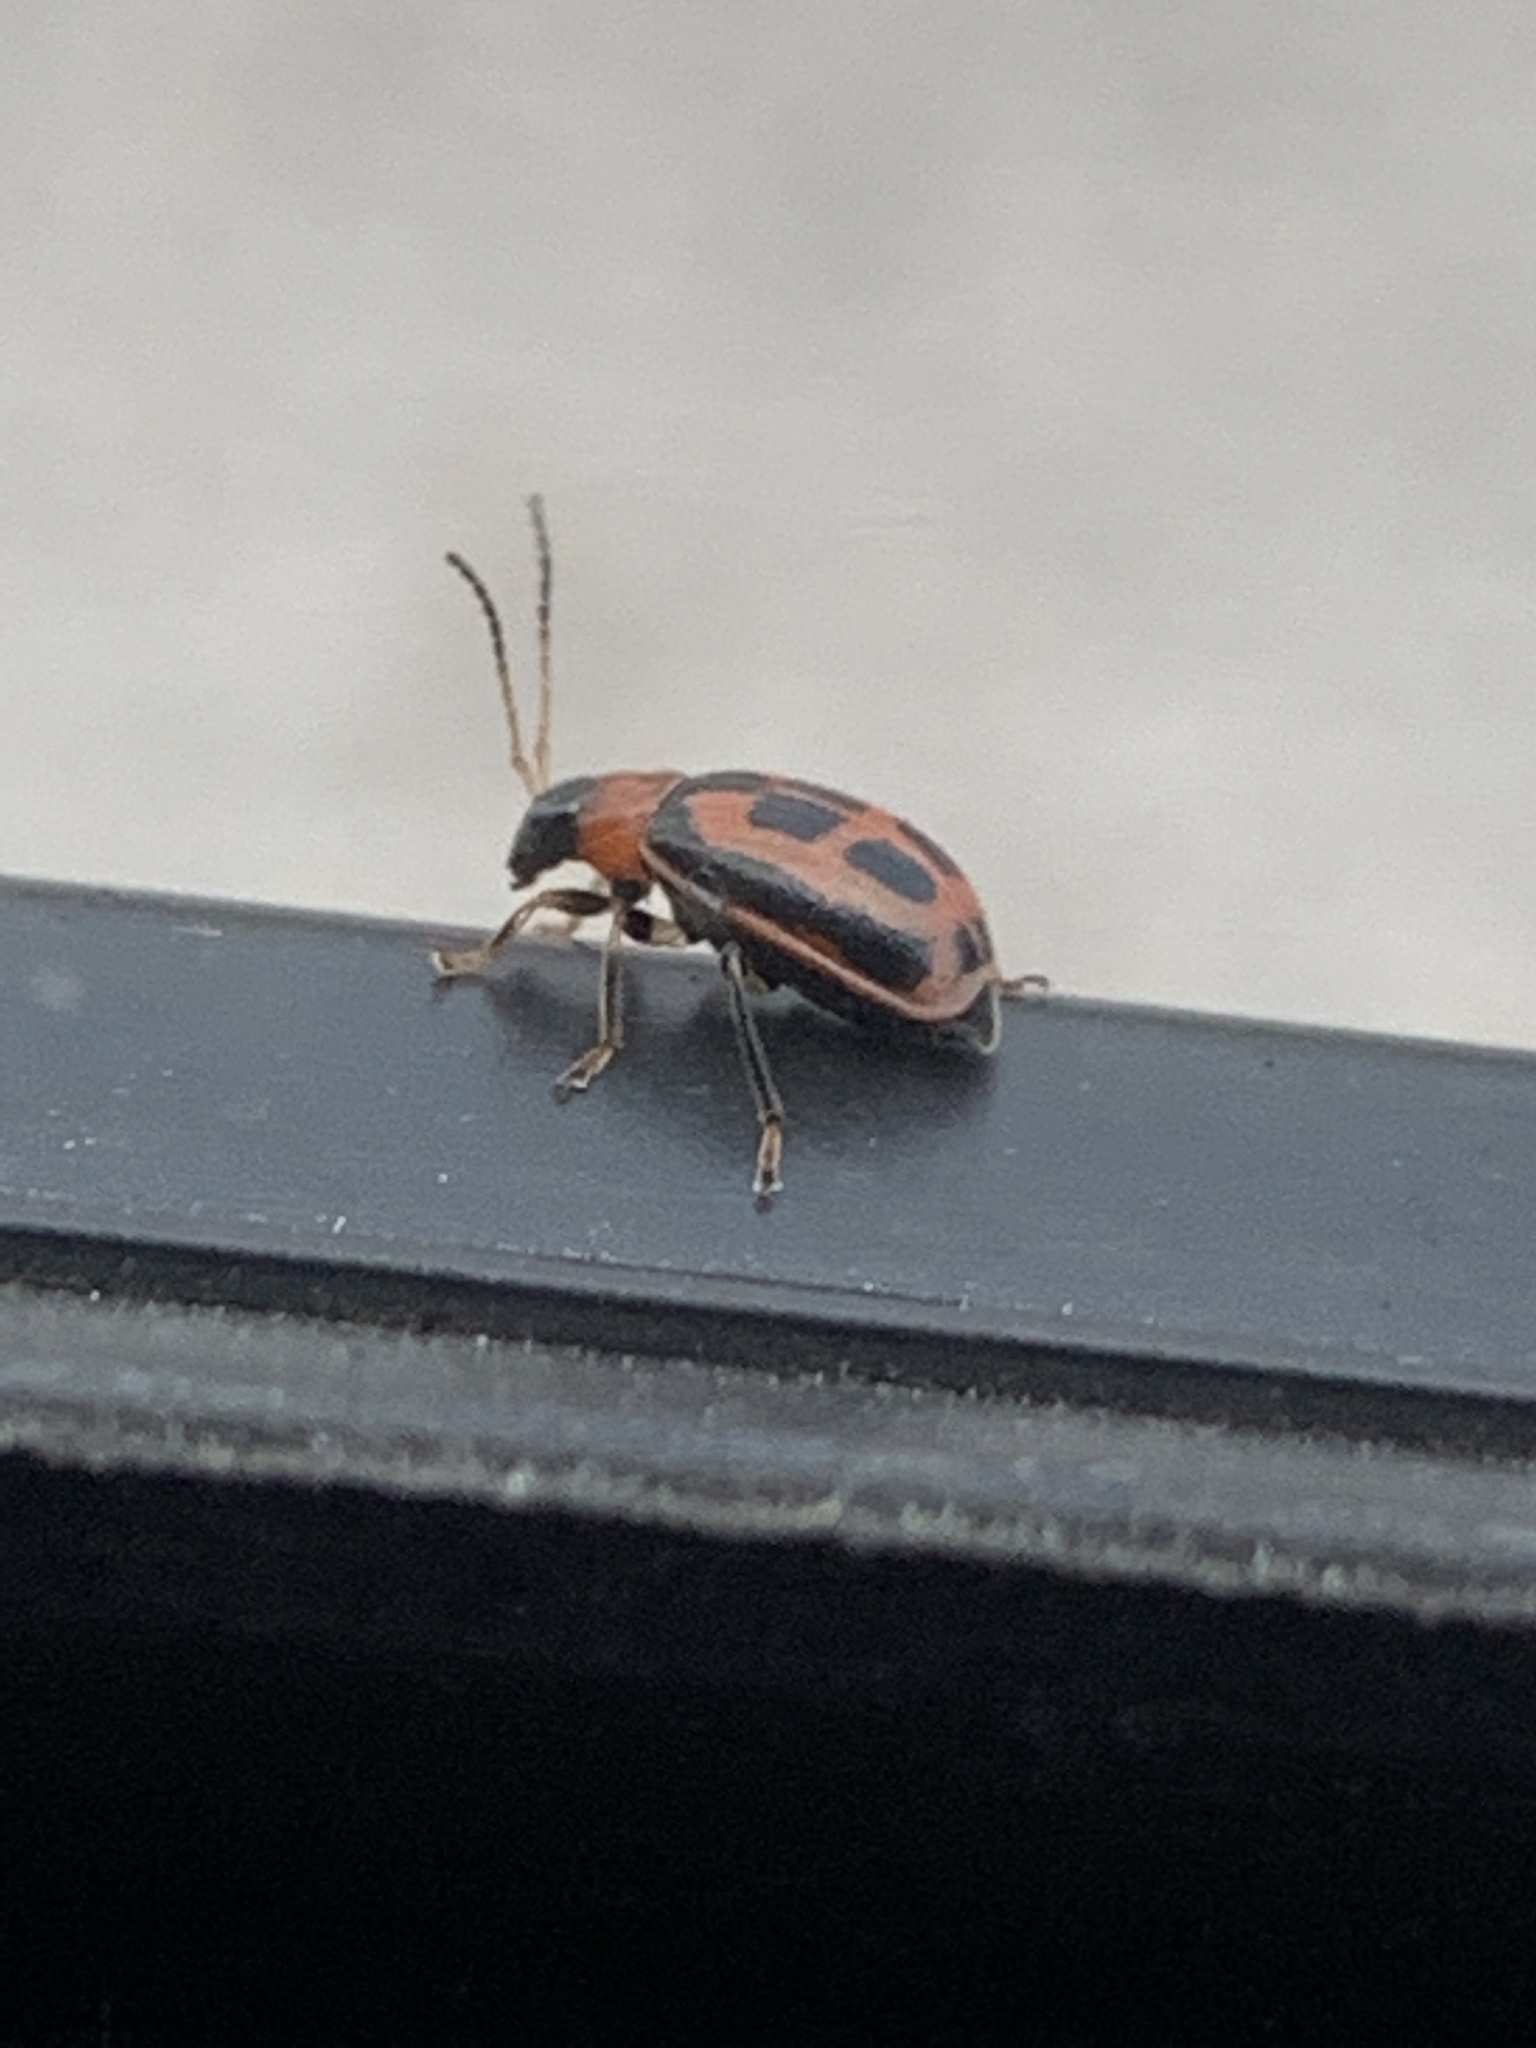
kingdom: Animalia
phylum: Arthropoda
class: Insecta
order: Coleoptera
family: Chrysomelidae
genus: Cerotoma
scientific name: Cerotoma trifurcata
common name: Bean leaf beetle
